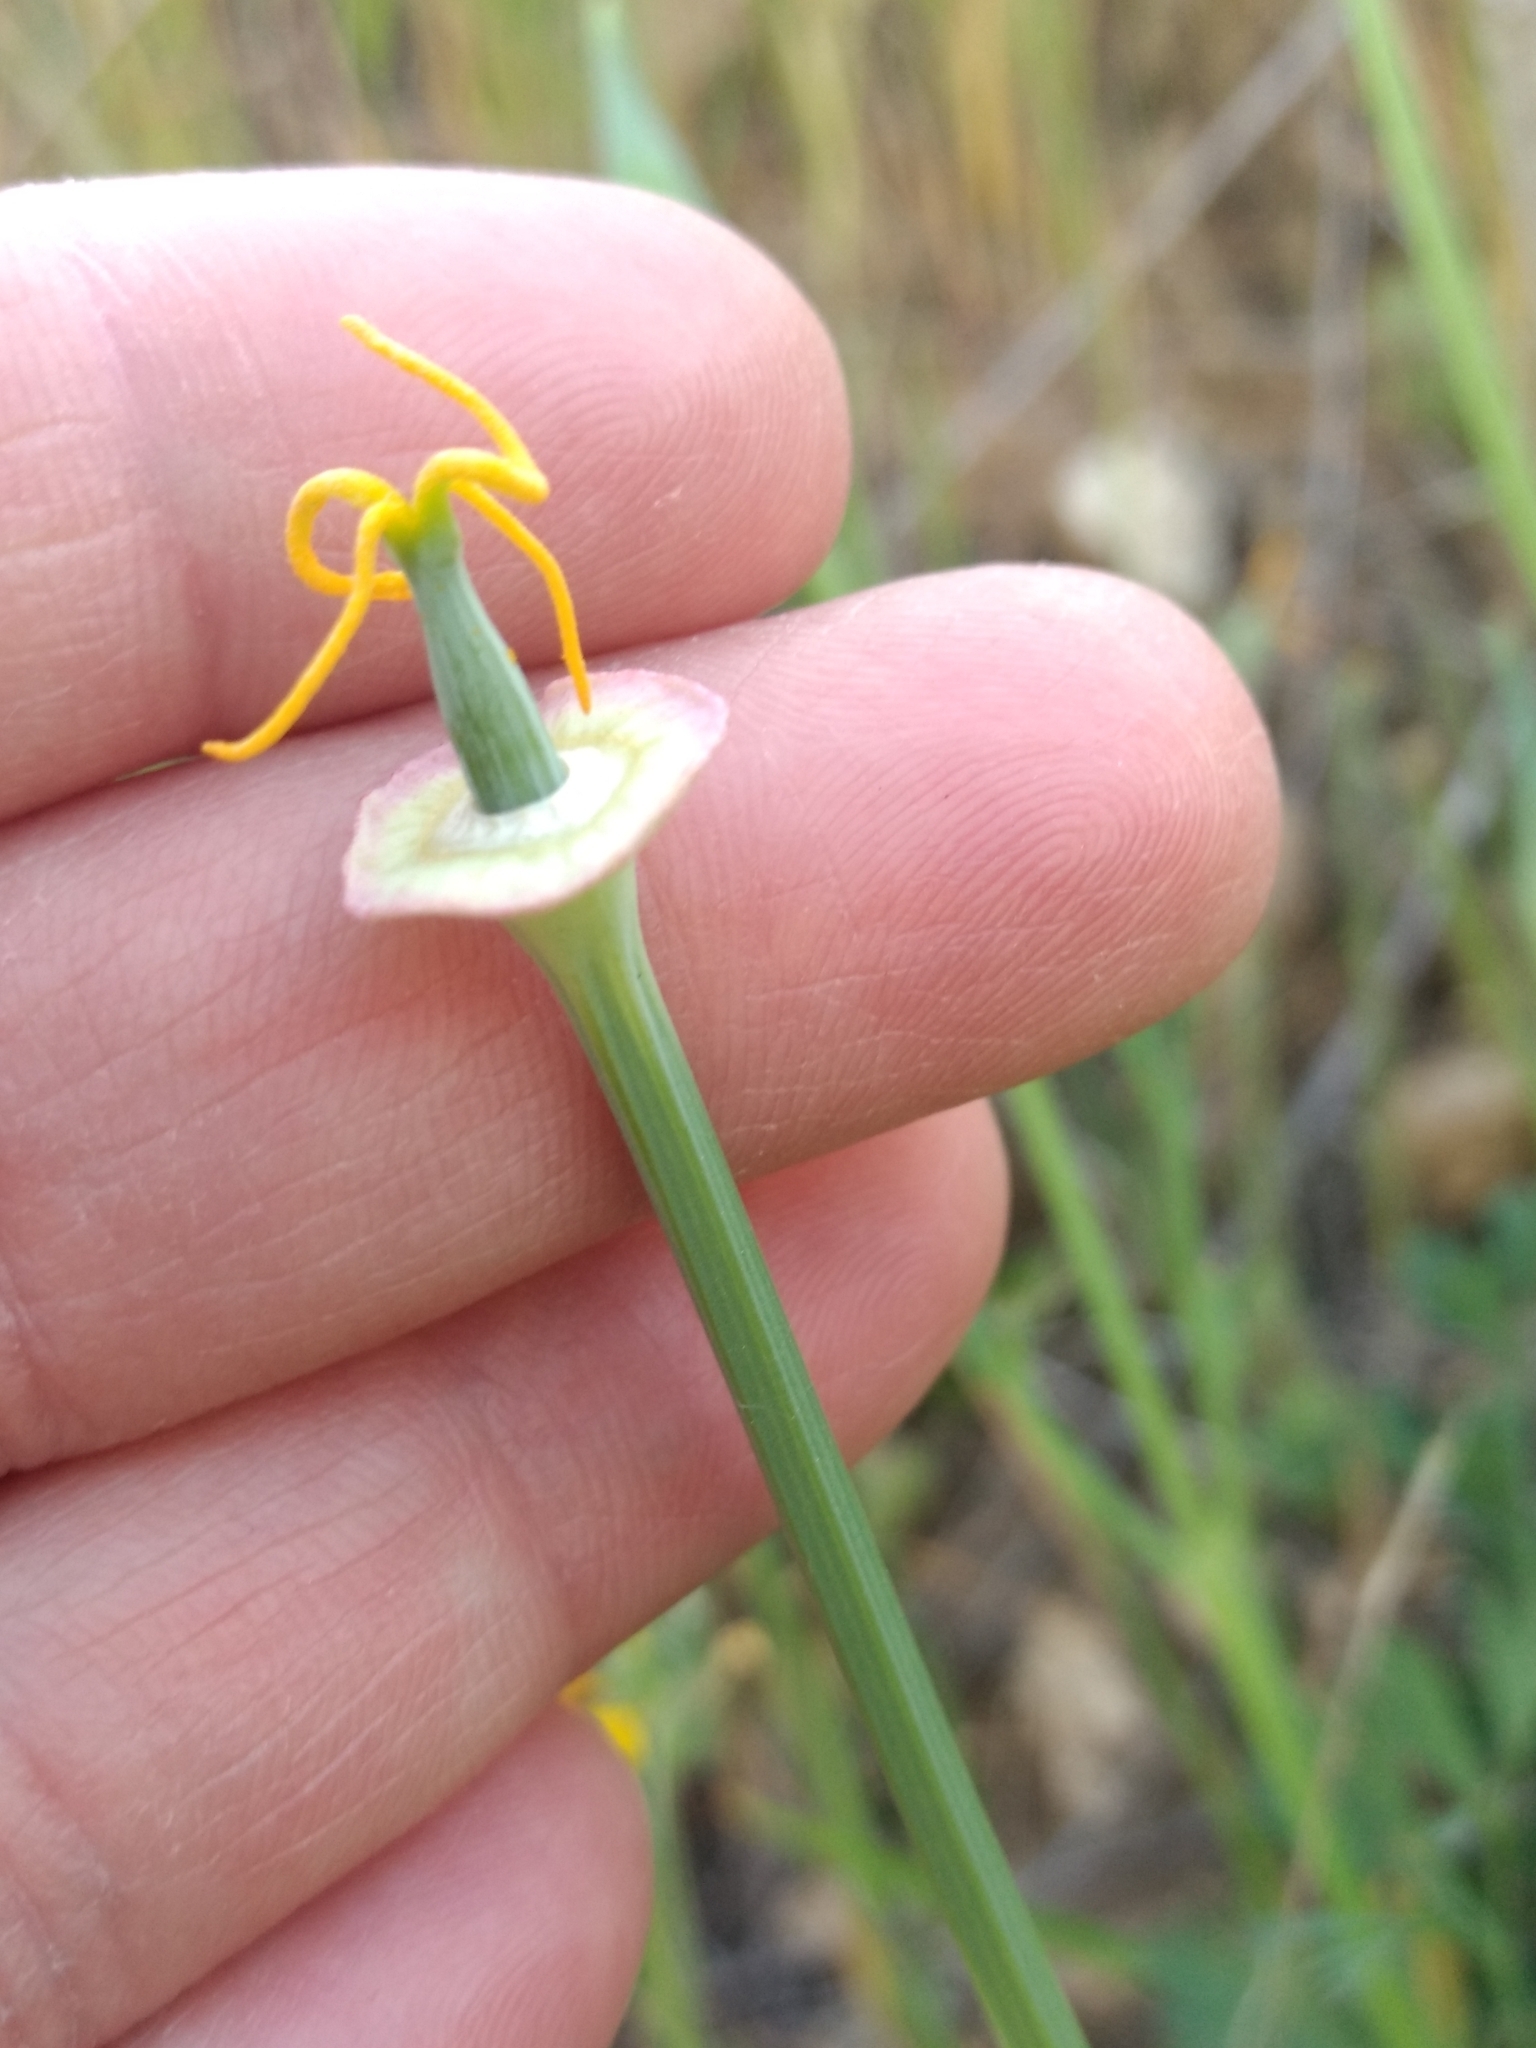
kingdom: Plantae
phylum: Tracheophyta
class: Magnoliopsida
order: Ranunculales
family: Papaveraceae
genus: Eschscholzia
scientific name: Eschscholzia californica
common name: California poppy
